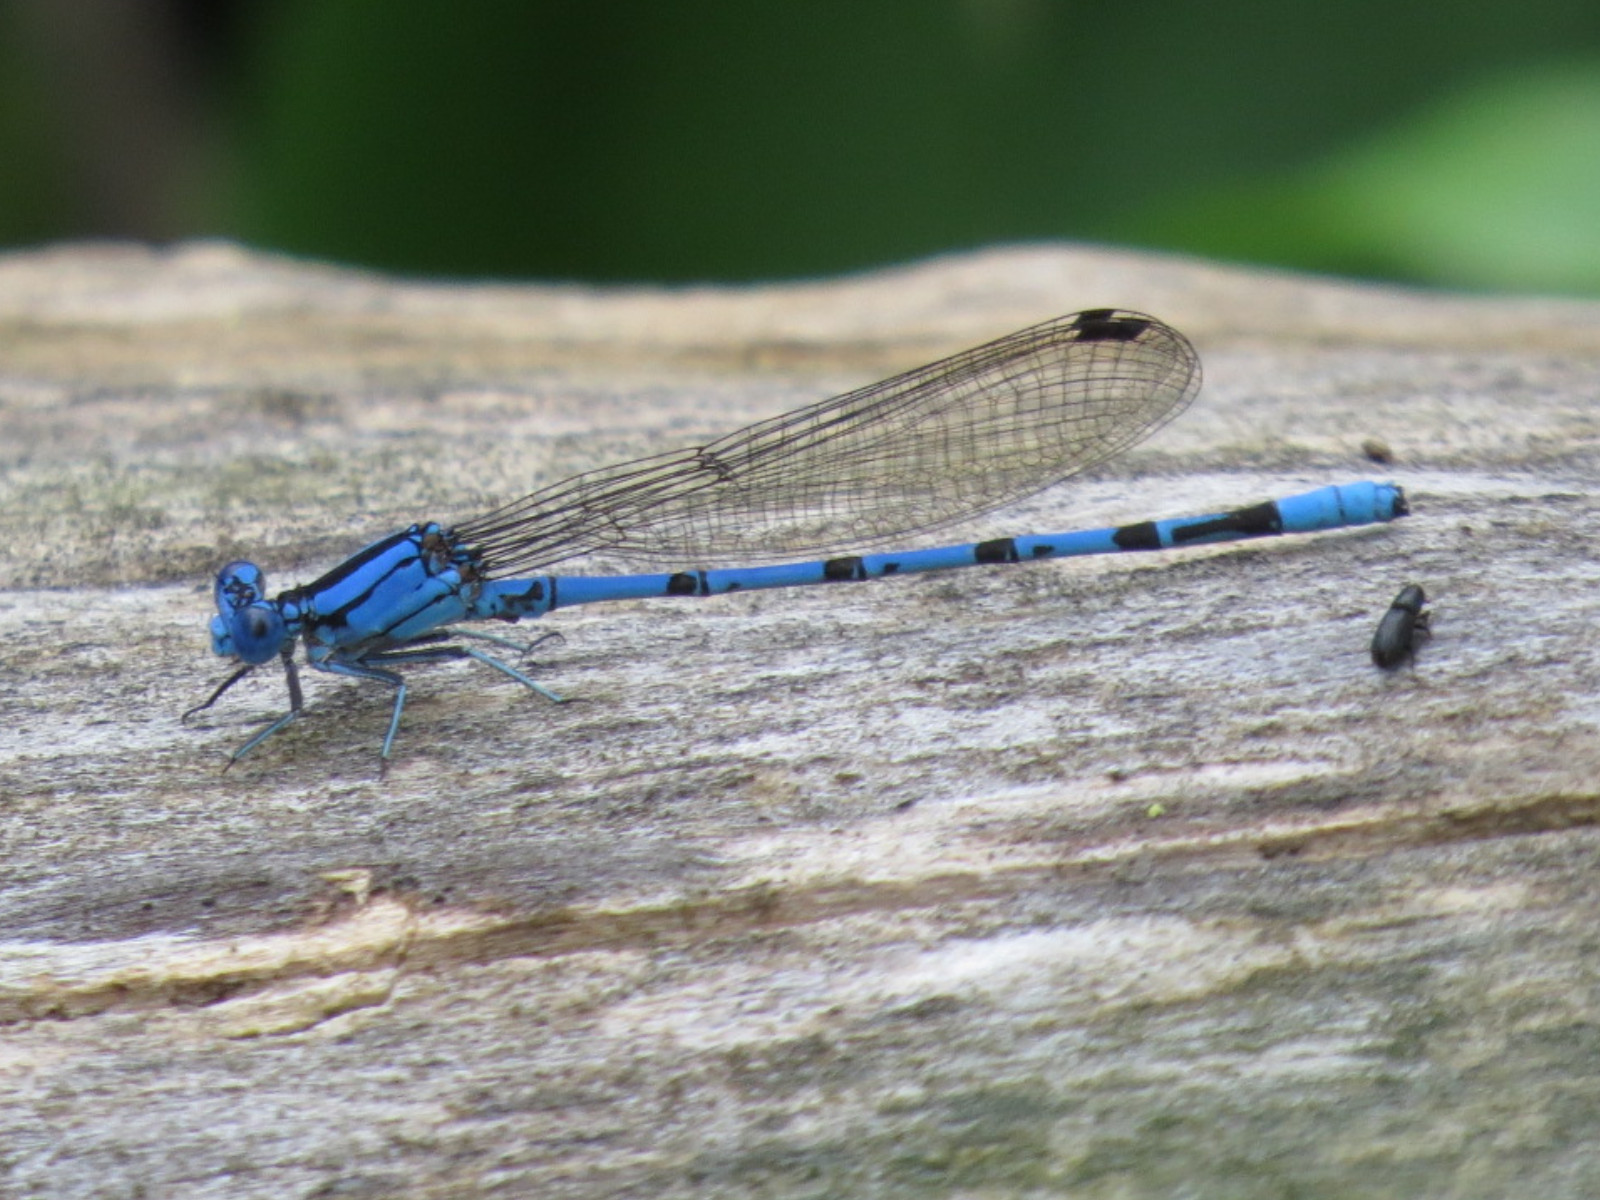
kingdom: Animalia
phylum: Arthropoda
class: Insecta
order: Odonata
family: Coenagrionidae
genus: Argia
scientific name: Argia funebris
